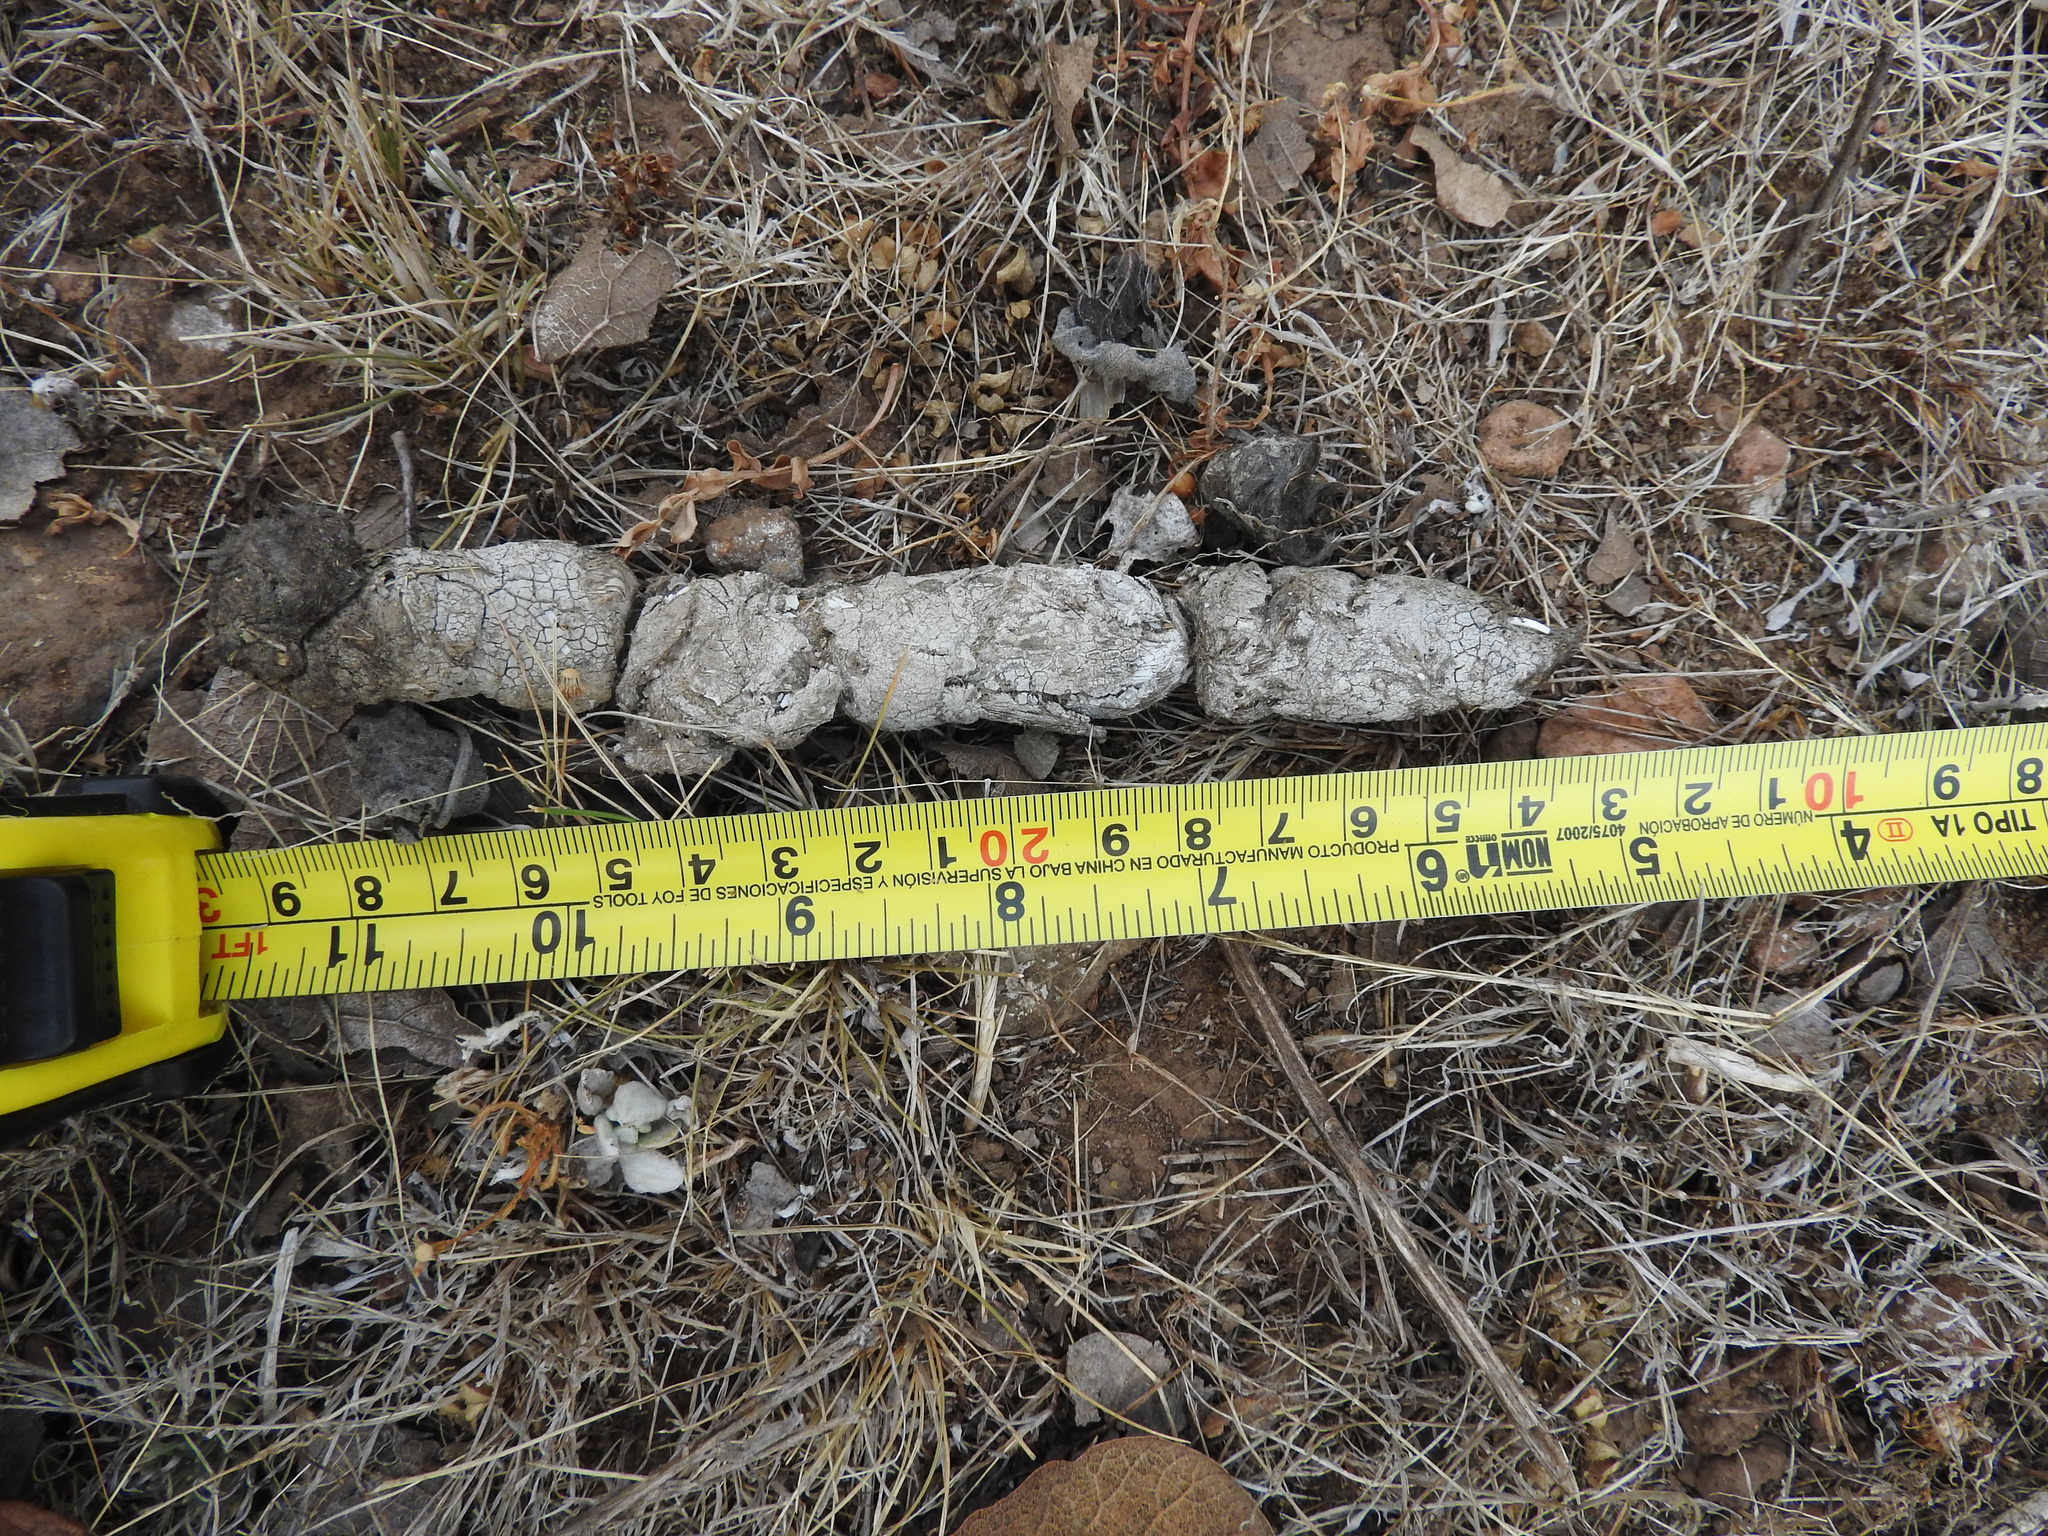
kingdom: Animalia
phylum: Chordata
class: Mammalia
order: Carnivora
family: Felidae
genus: Lynx
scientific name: Lynx rufus
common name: Bobcat
